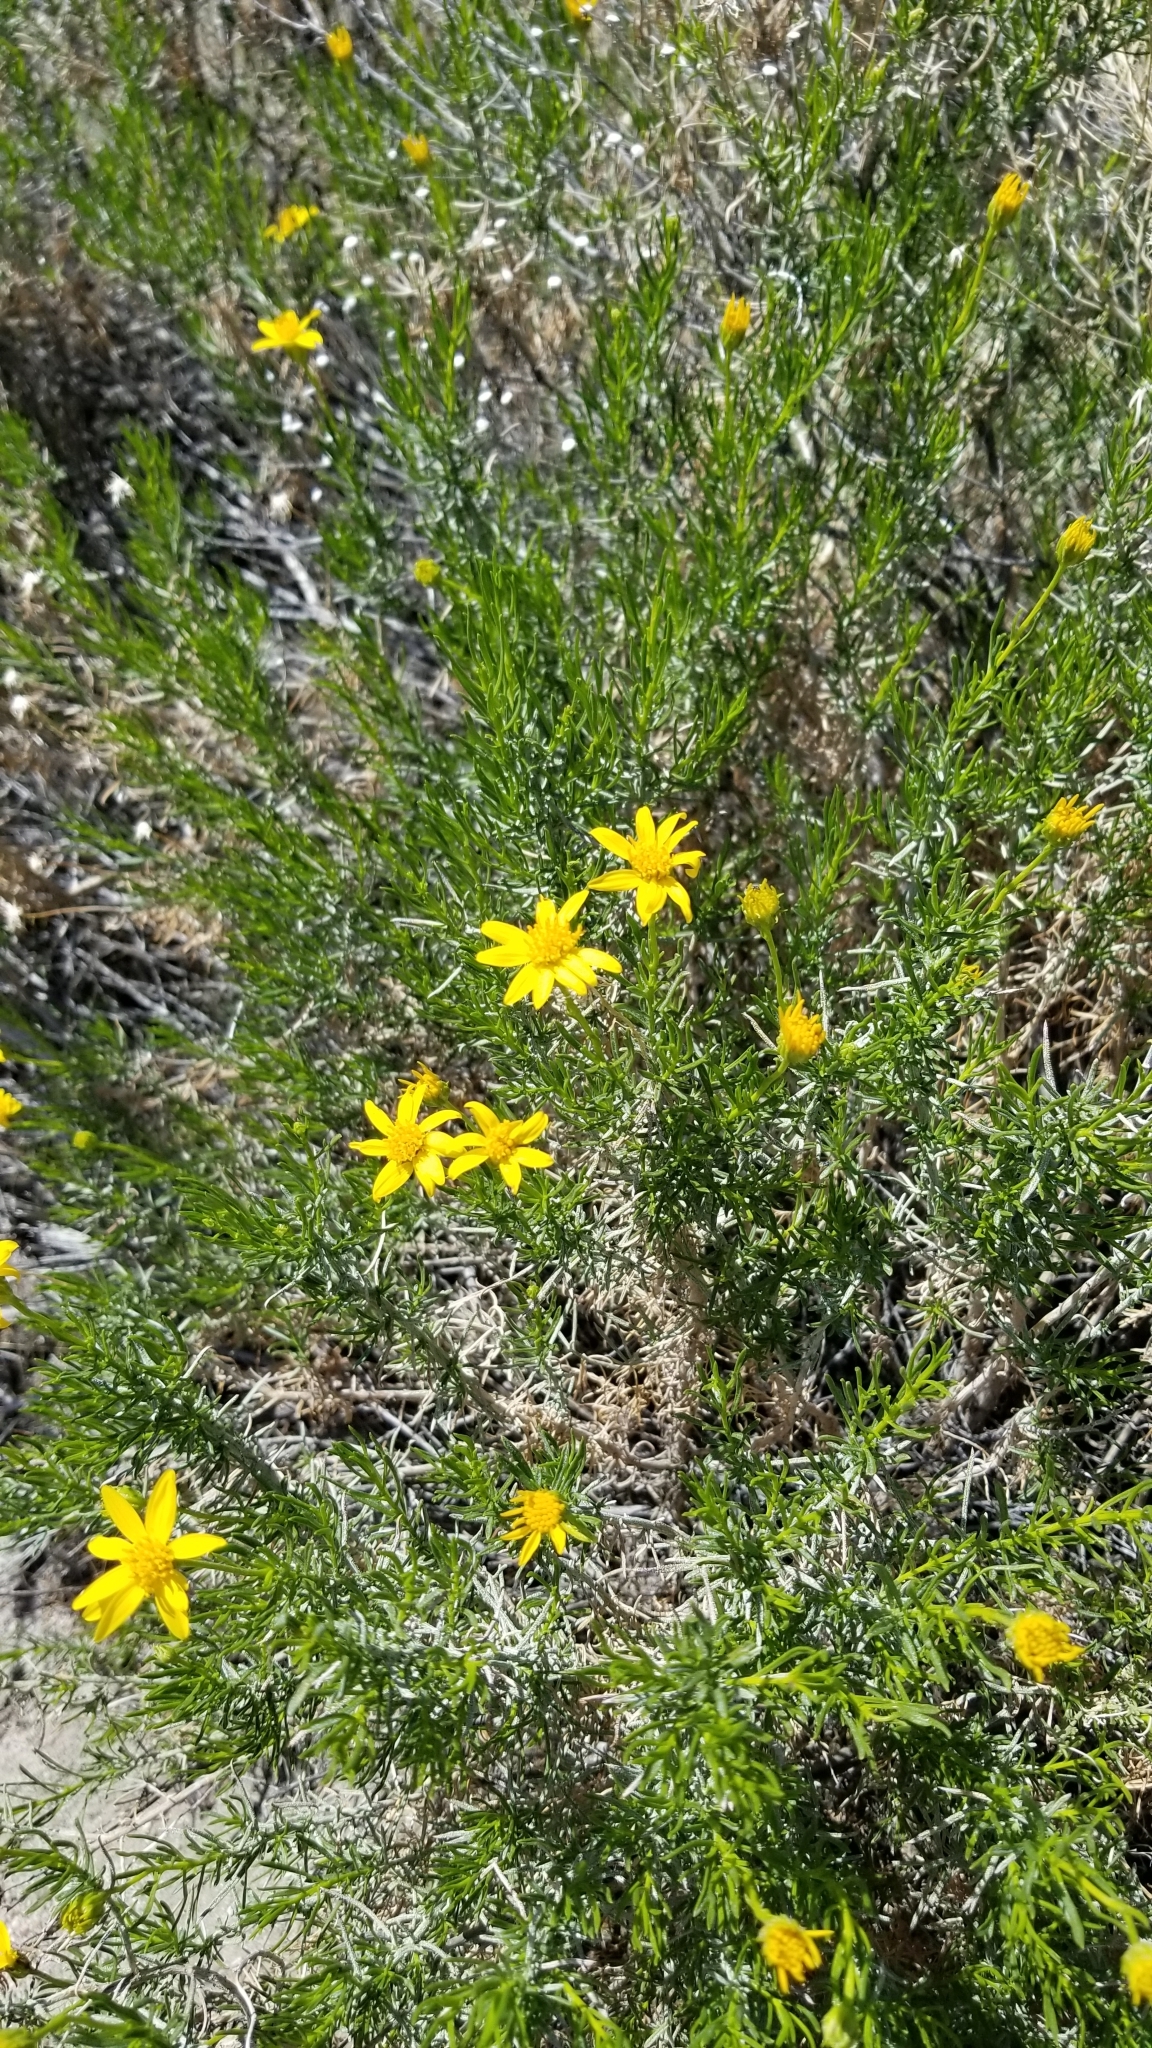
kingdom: Plantae
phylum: Tracheophyta
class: Magnoliopsida
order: Asterales
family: Asteraceae
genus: Ericameria
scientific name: Ericameria linearifolia
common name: Interior goldenbush
